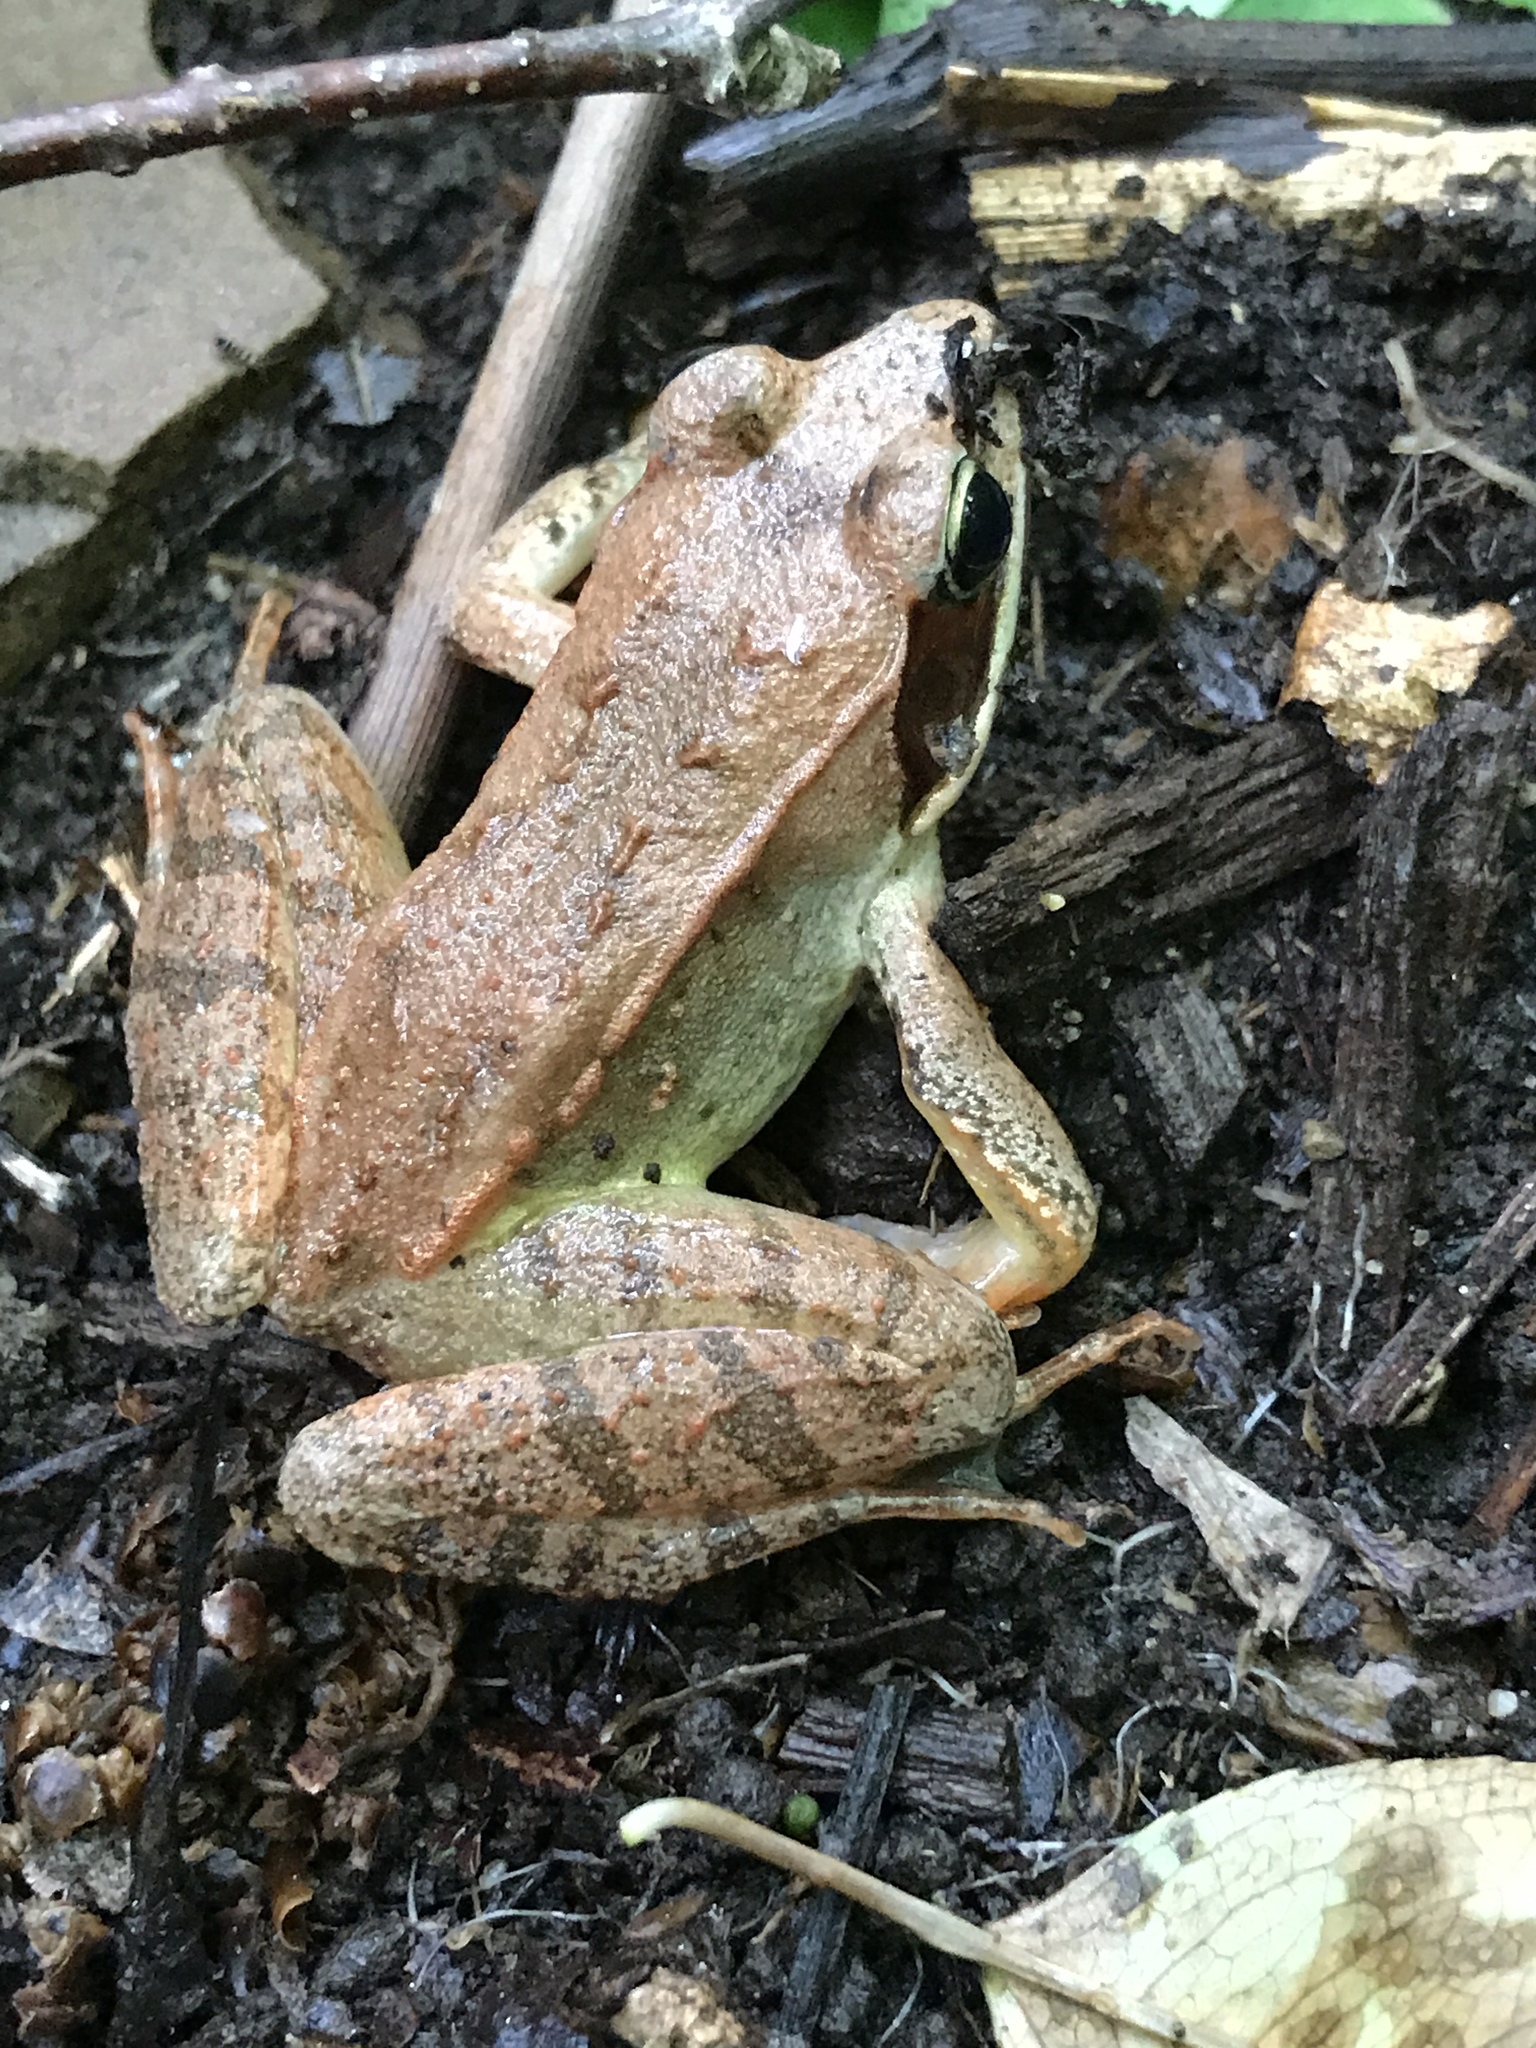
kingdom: Animalia
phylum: Chordata
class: Amphibia
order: Anura
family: Ranidae
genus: Lithobates
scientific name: Lithobates sylvaticus
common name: Wood frog
